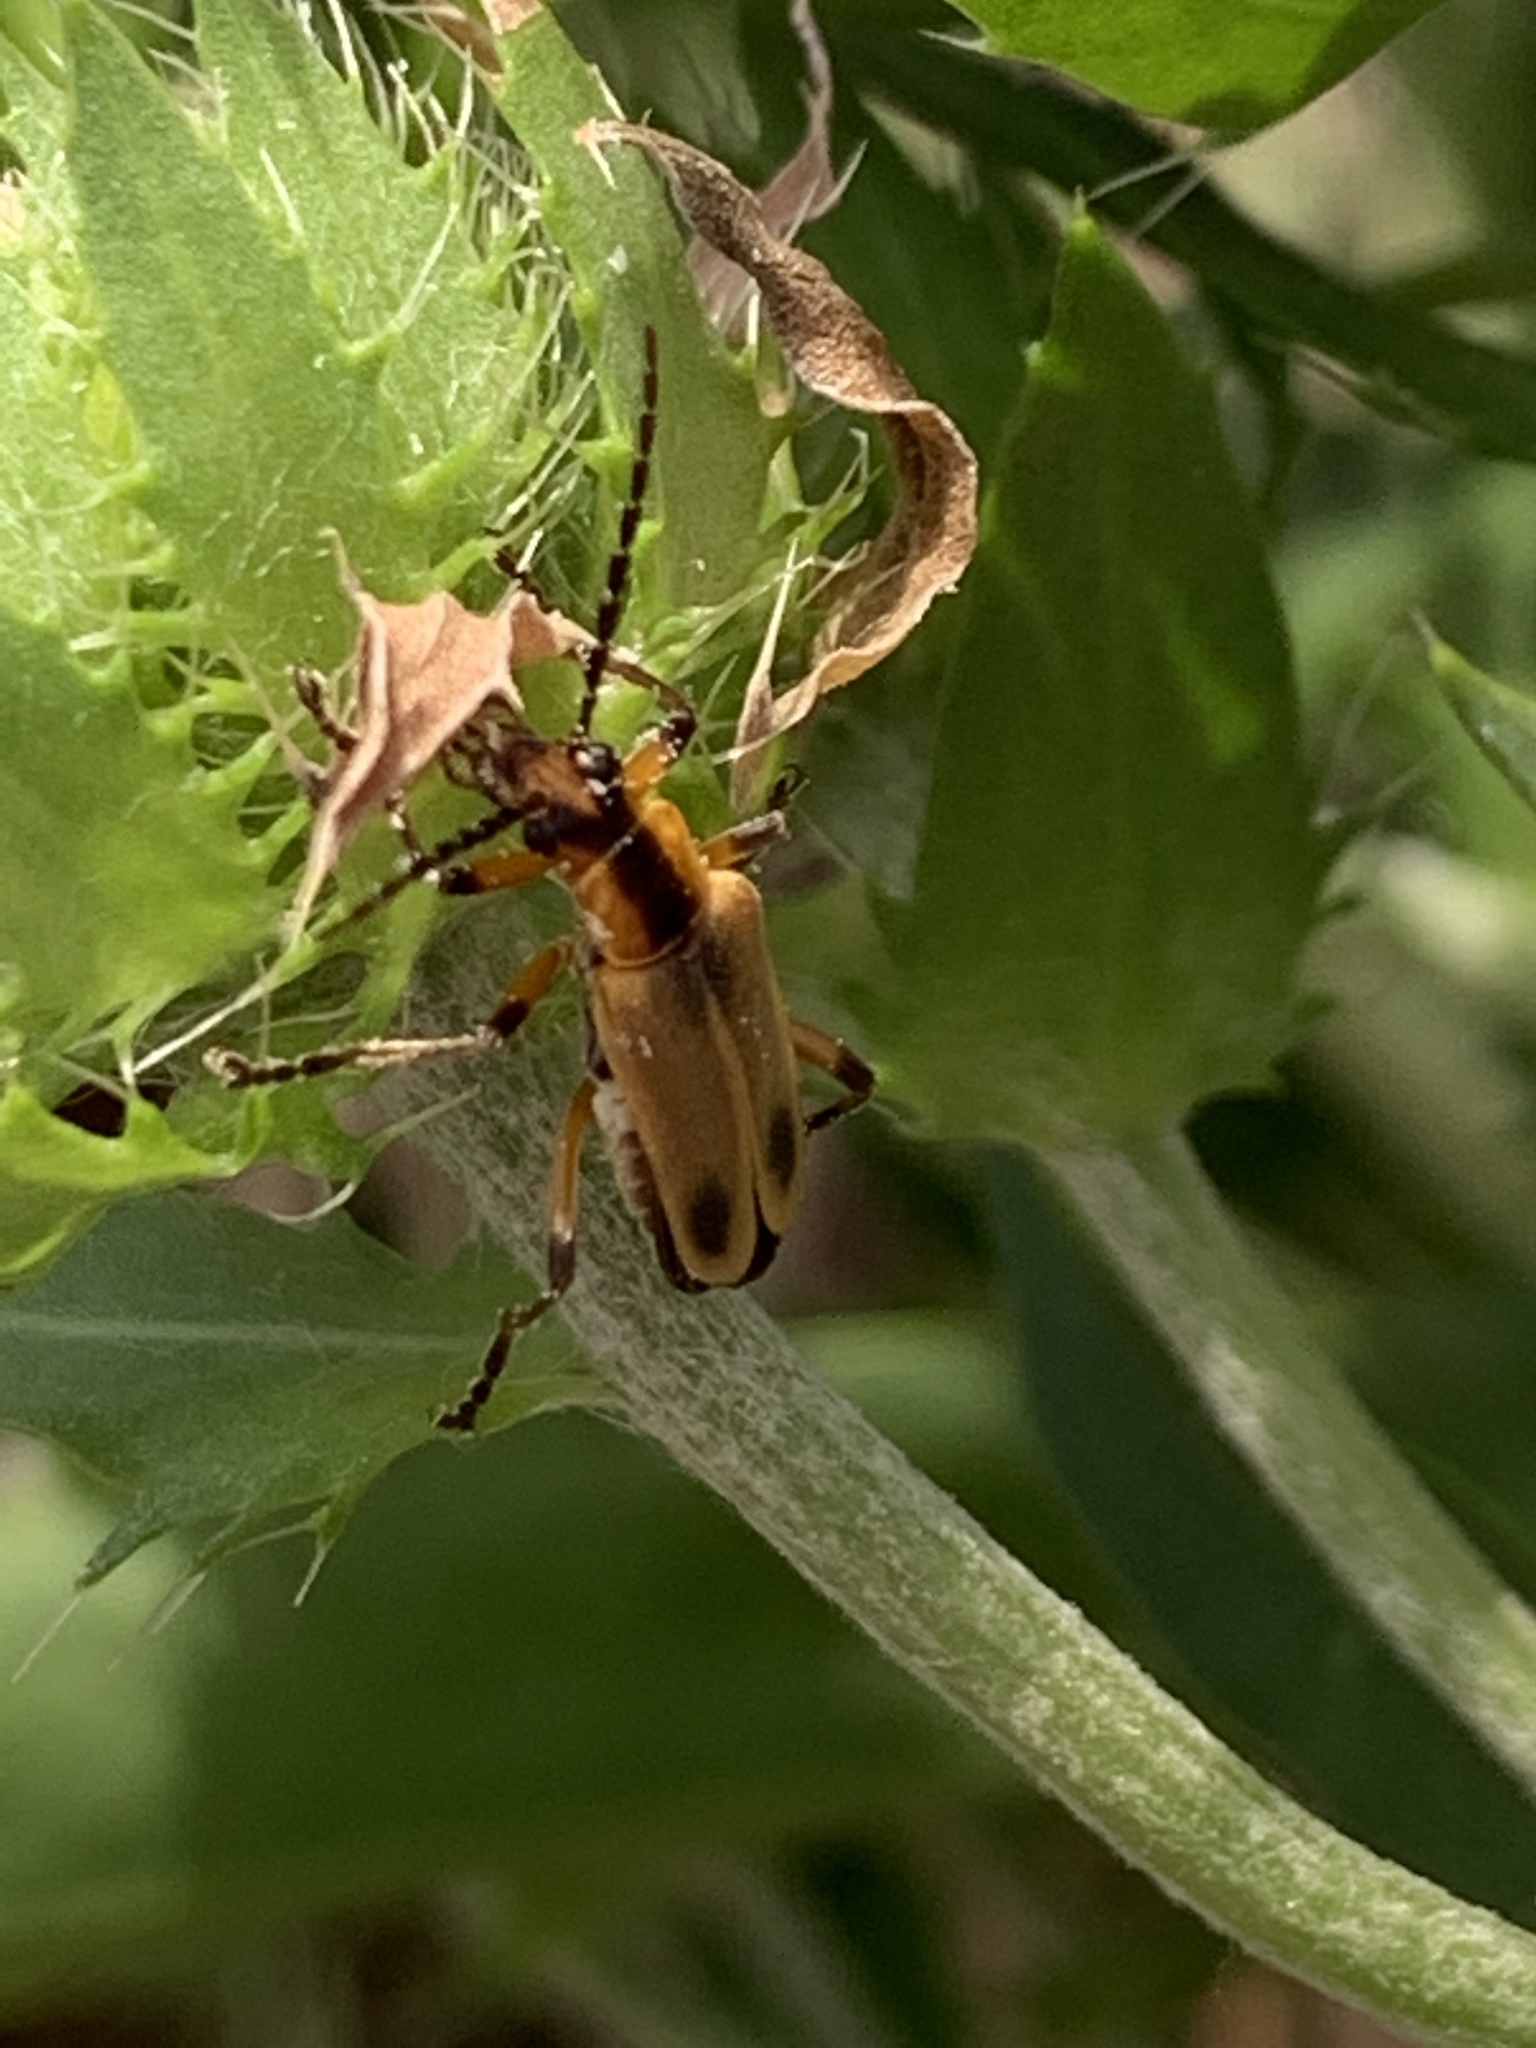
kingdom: Animalia
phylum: Arthropoda
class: Insecta
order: Coleoptera
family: Cantharidae
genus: Chauliognathus
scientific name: Chauliognathus marginatus
